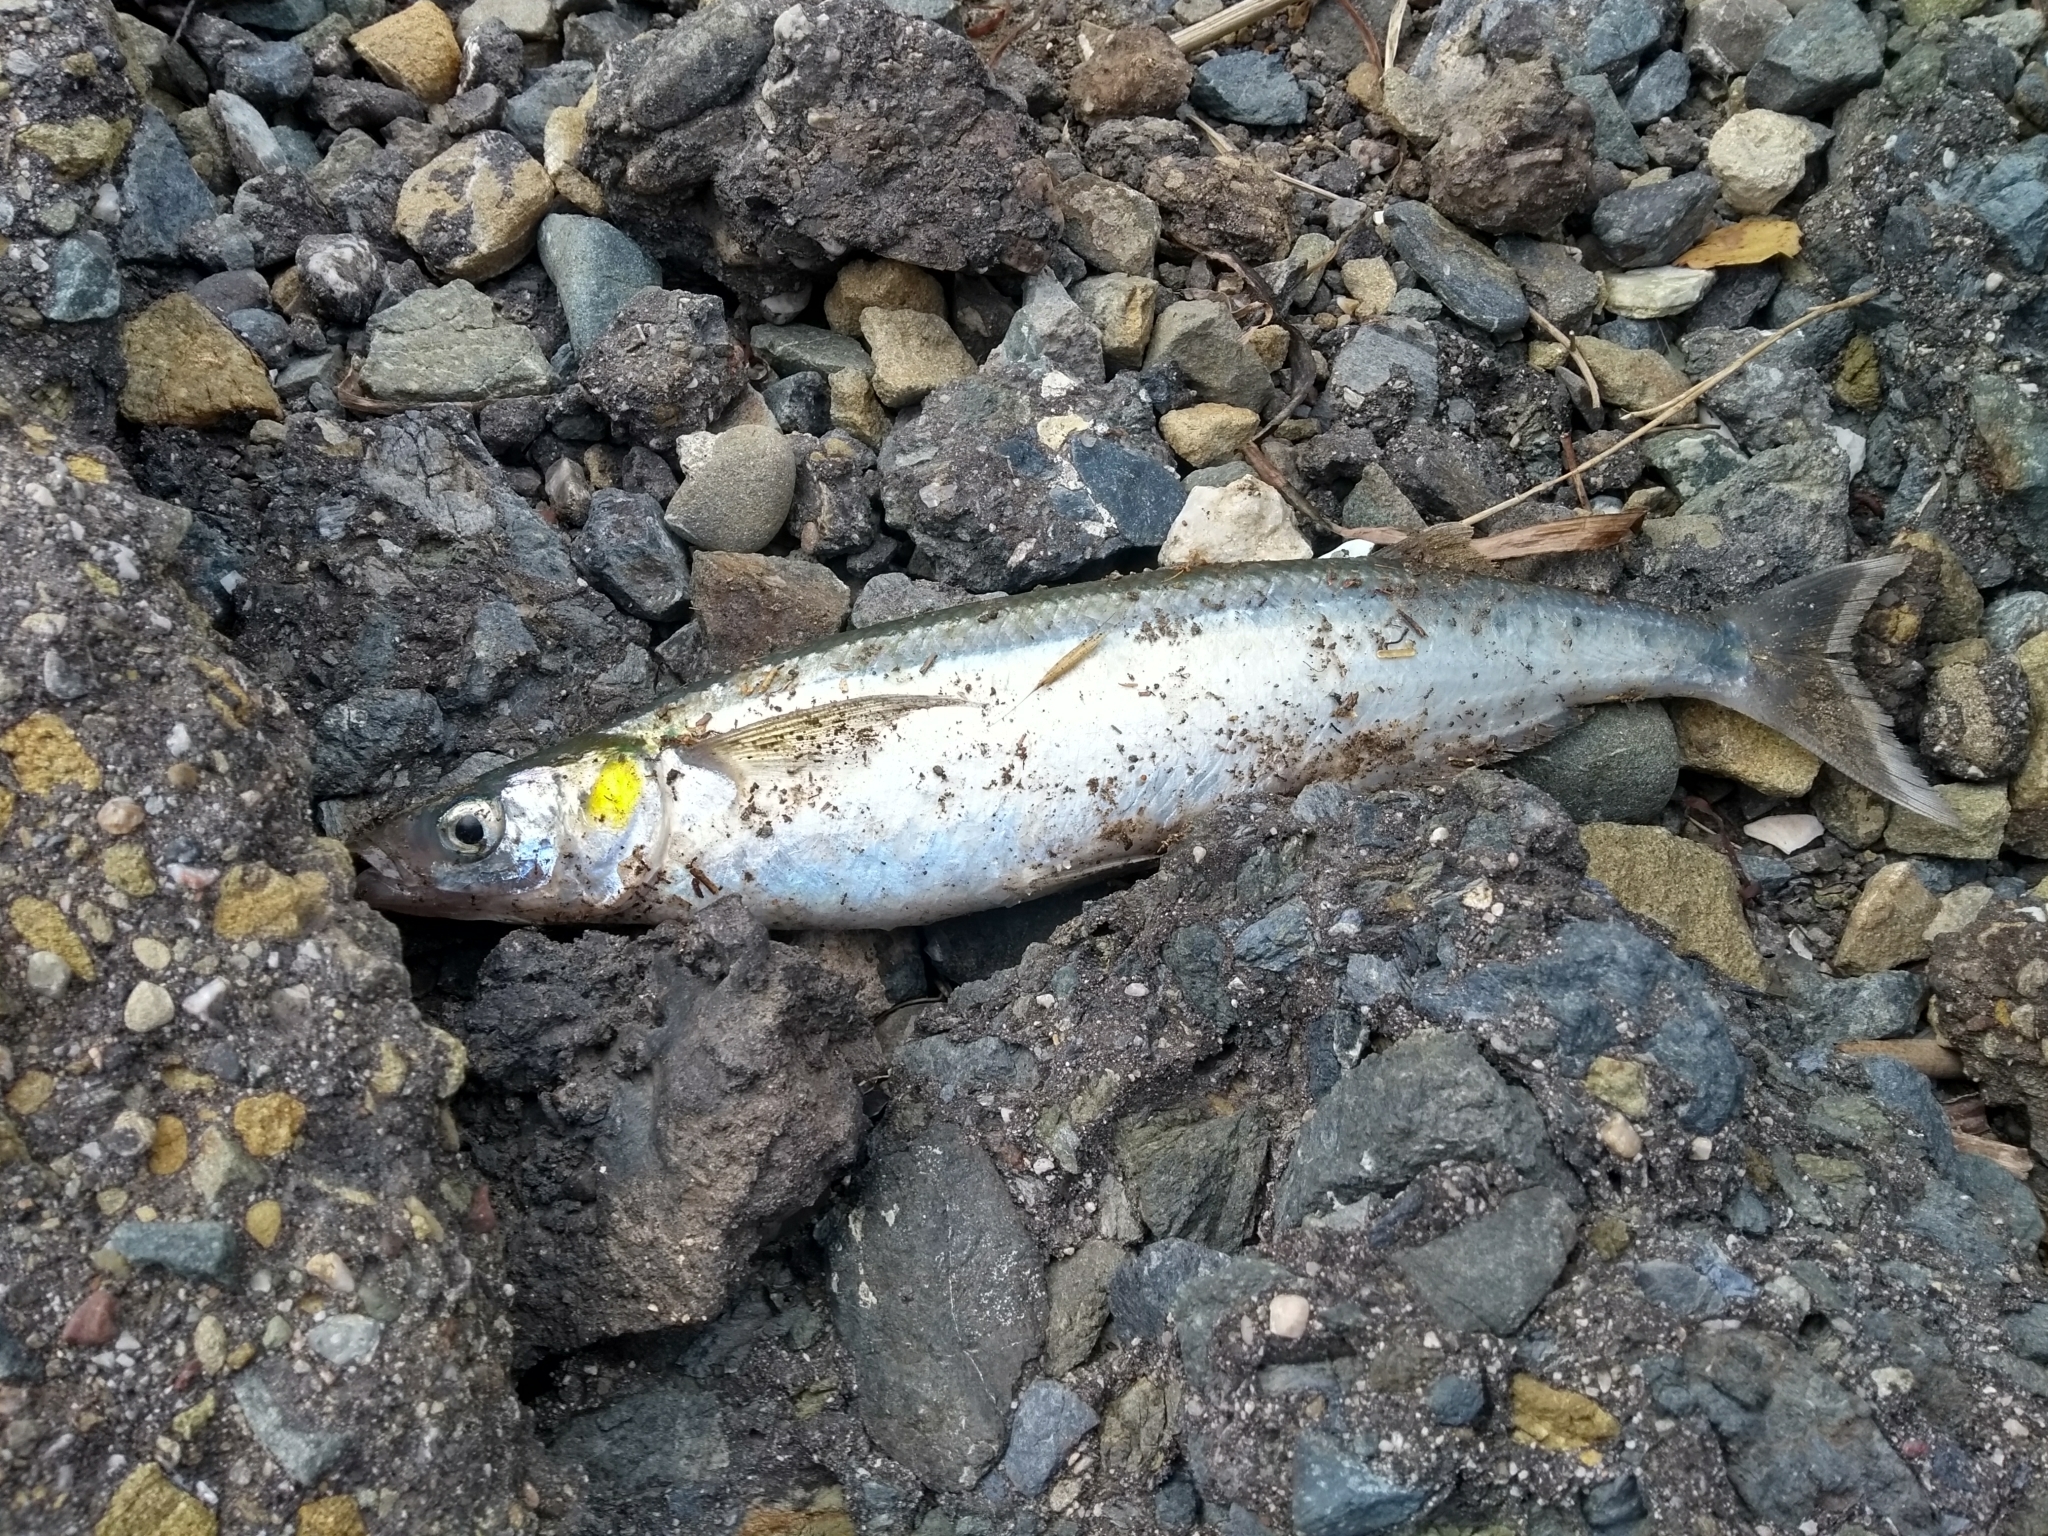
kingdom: Animalia
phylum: Chordata
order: Atheriniformes
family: Atherinopsidae
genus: Atherinopsis
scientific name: Atherinopsis californiensis
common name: Jack silverside
